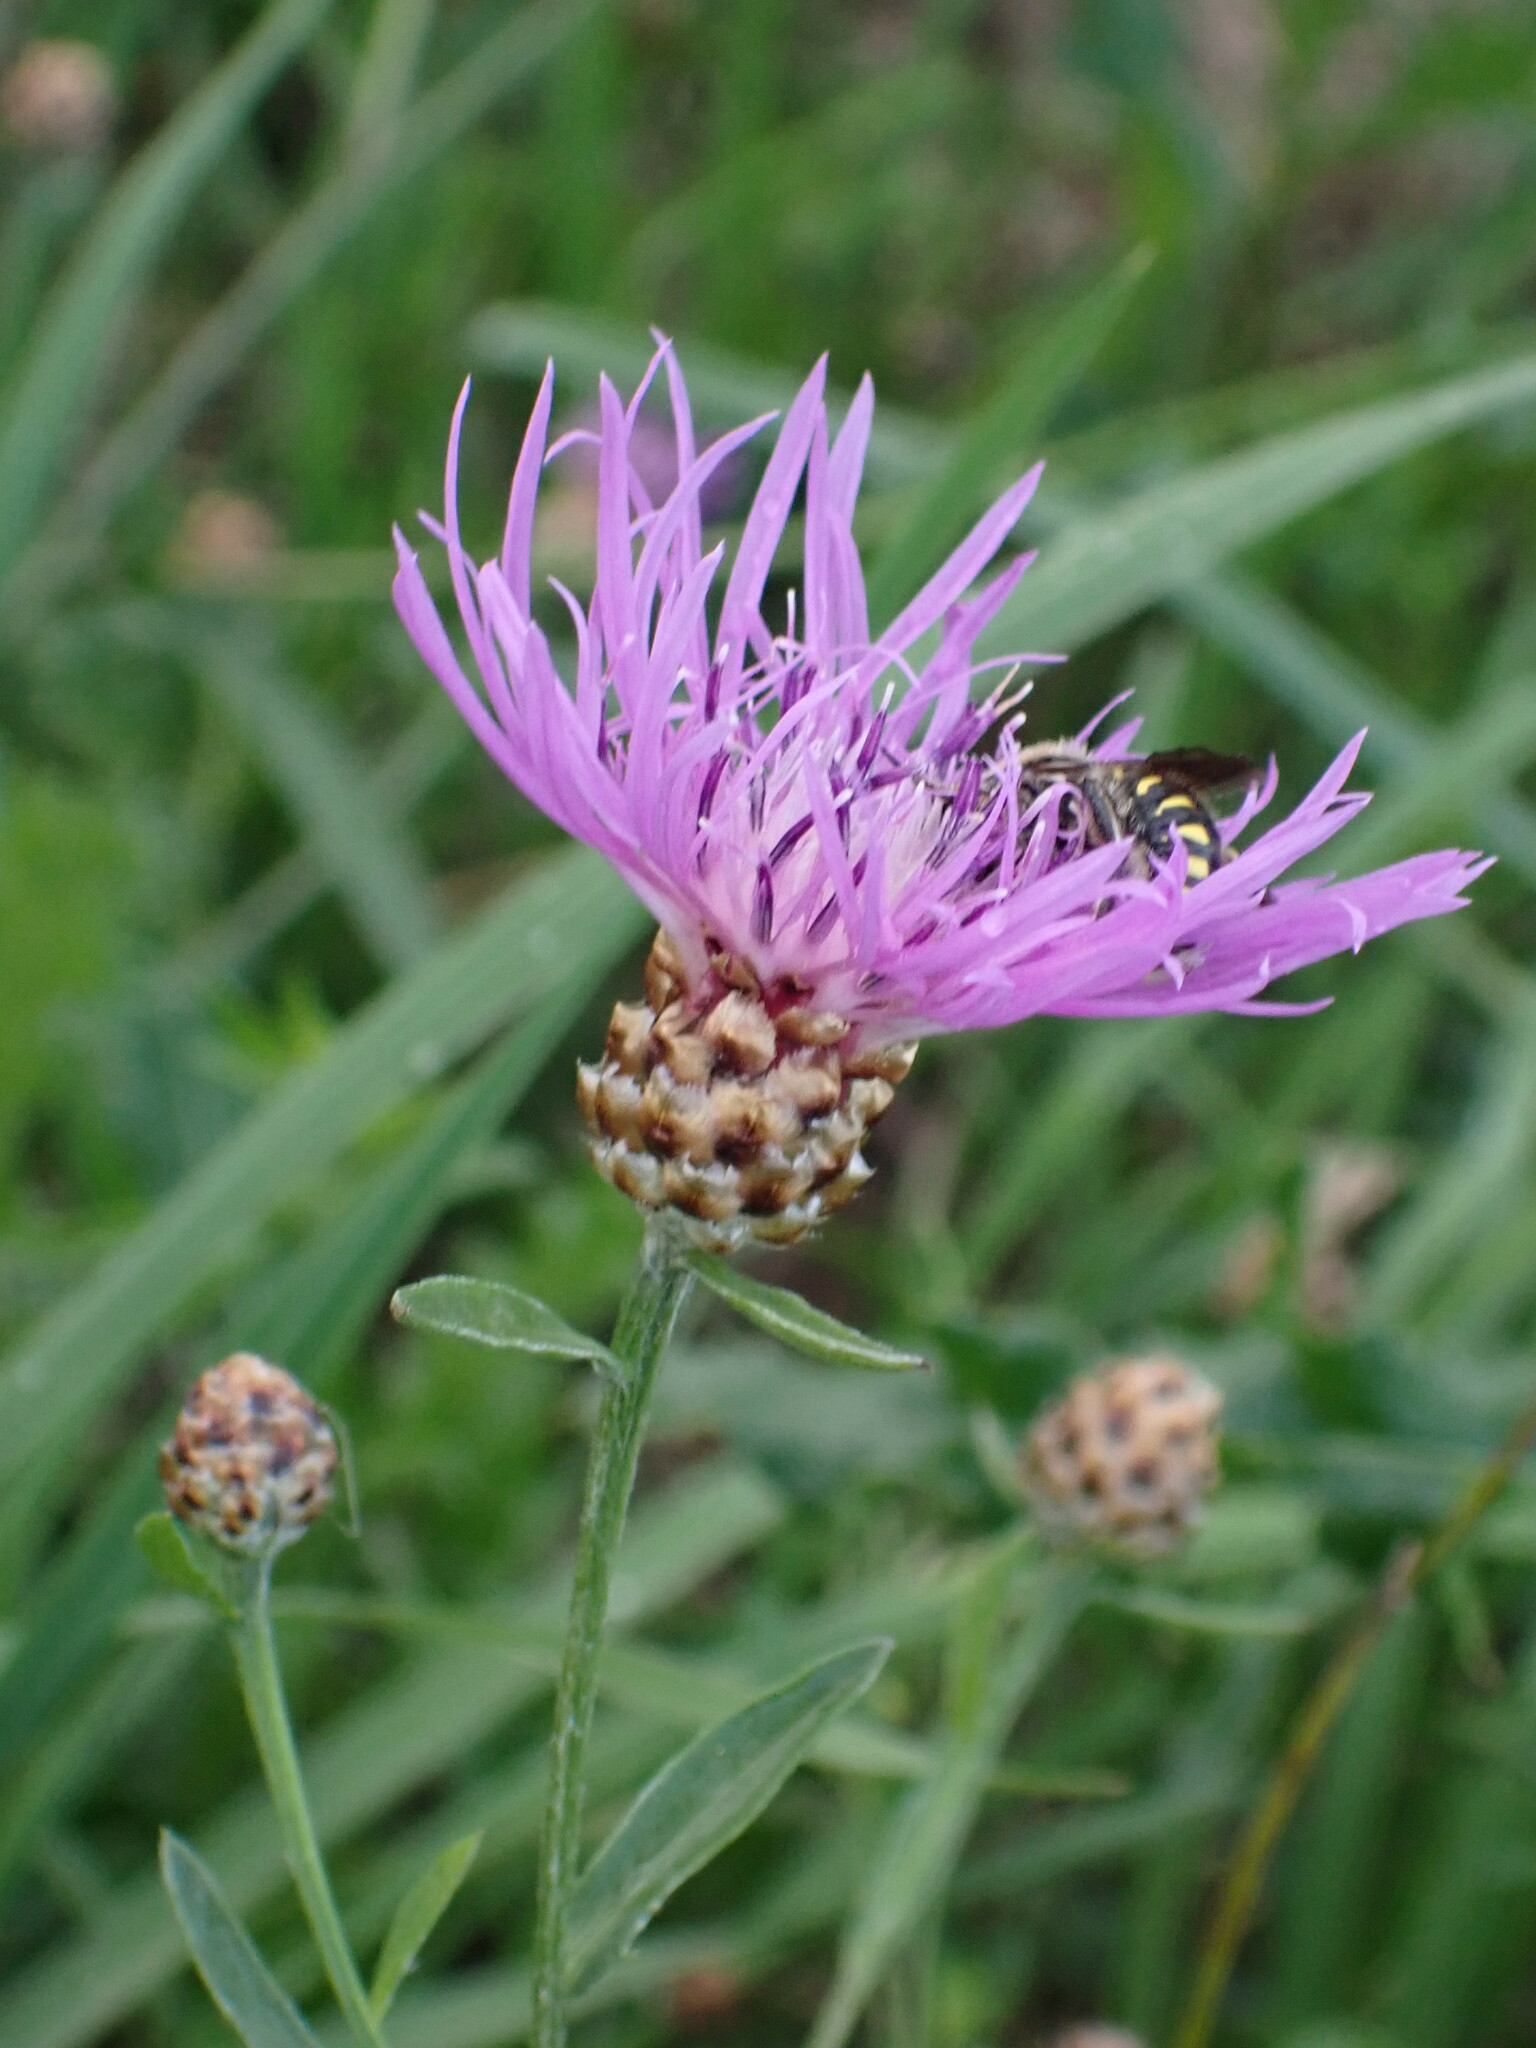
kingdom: Plantae
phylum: Tracheophyta
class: Magnoliopsida
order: Asterales
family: Asteraceae
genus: Centaurea
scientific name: Centaurea jacea
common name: Brown knapweed
